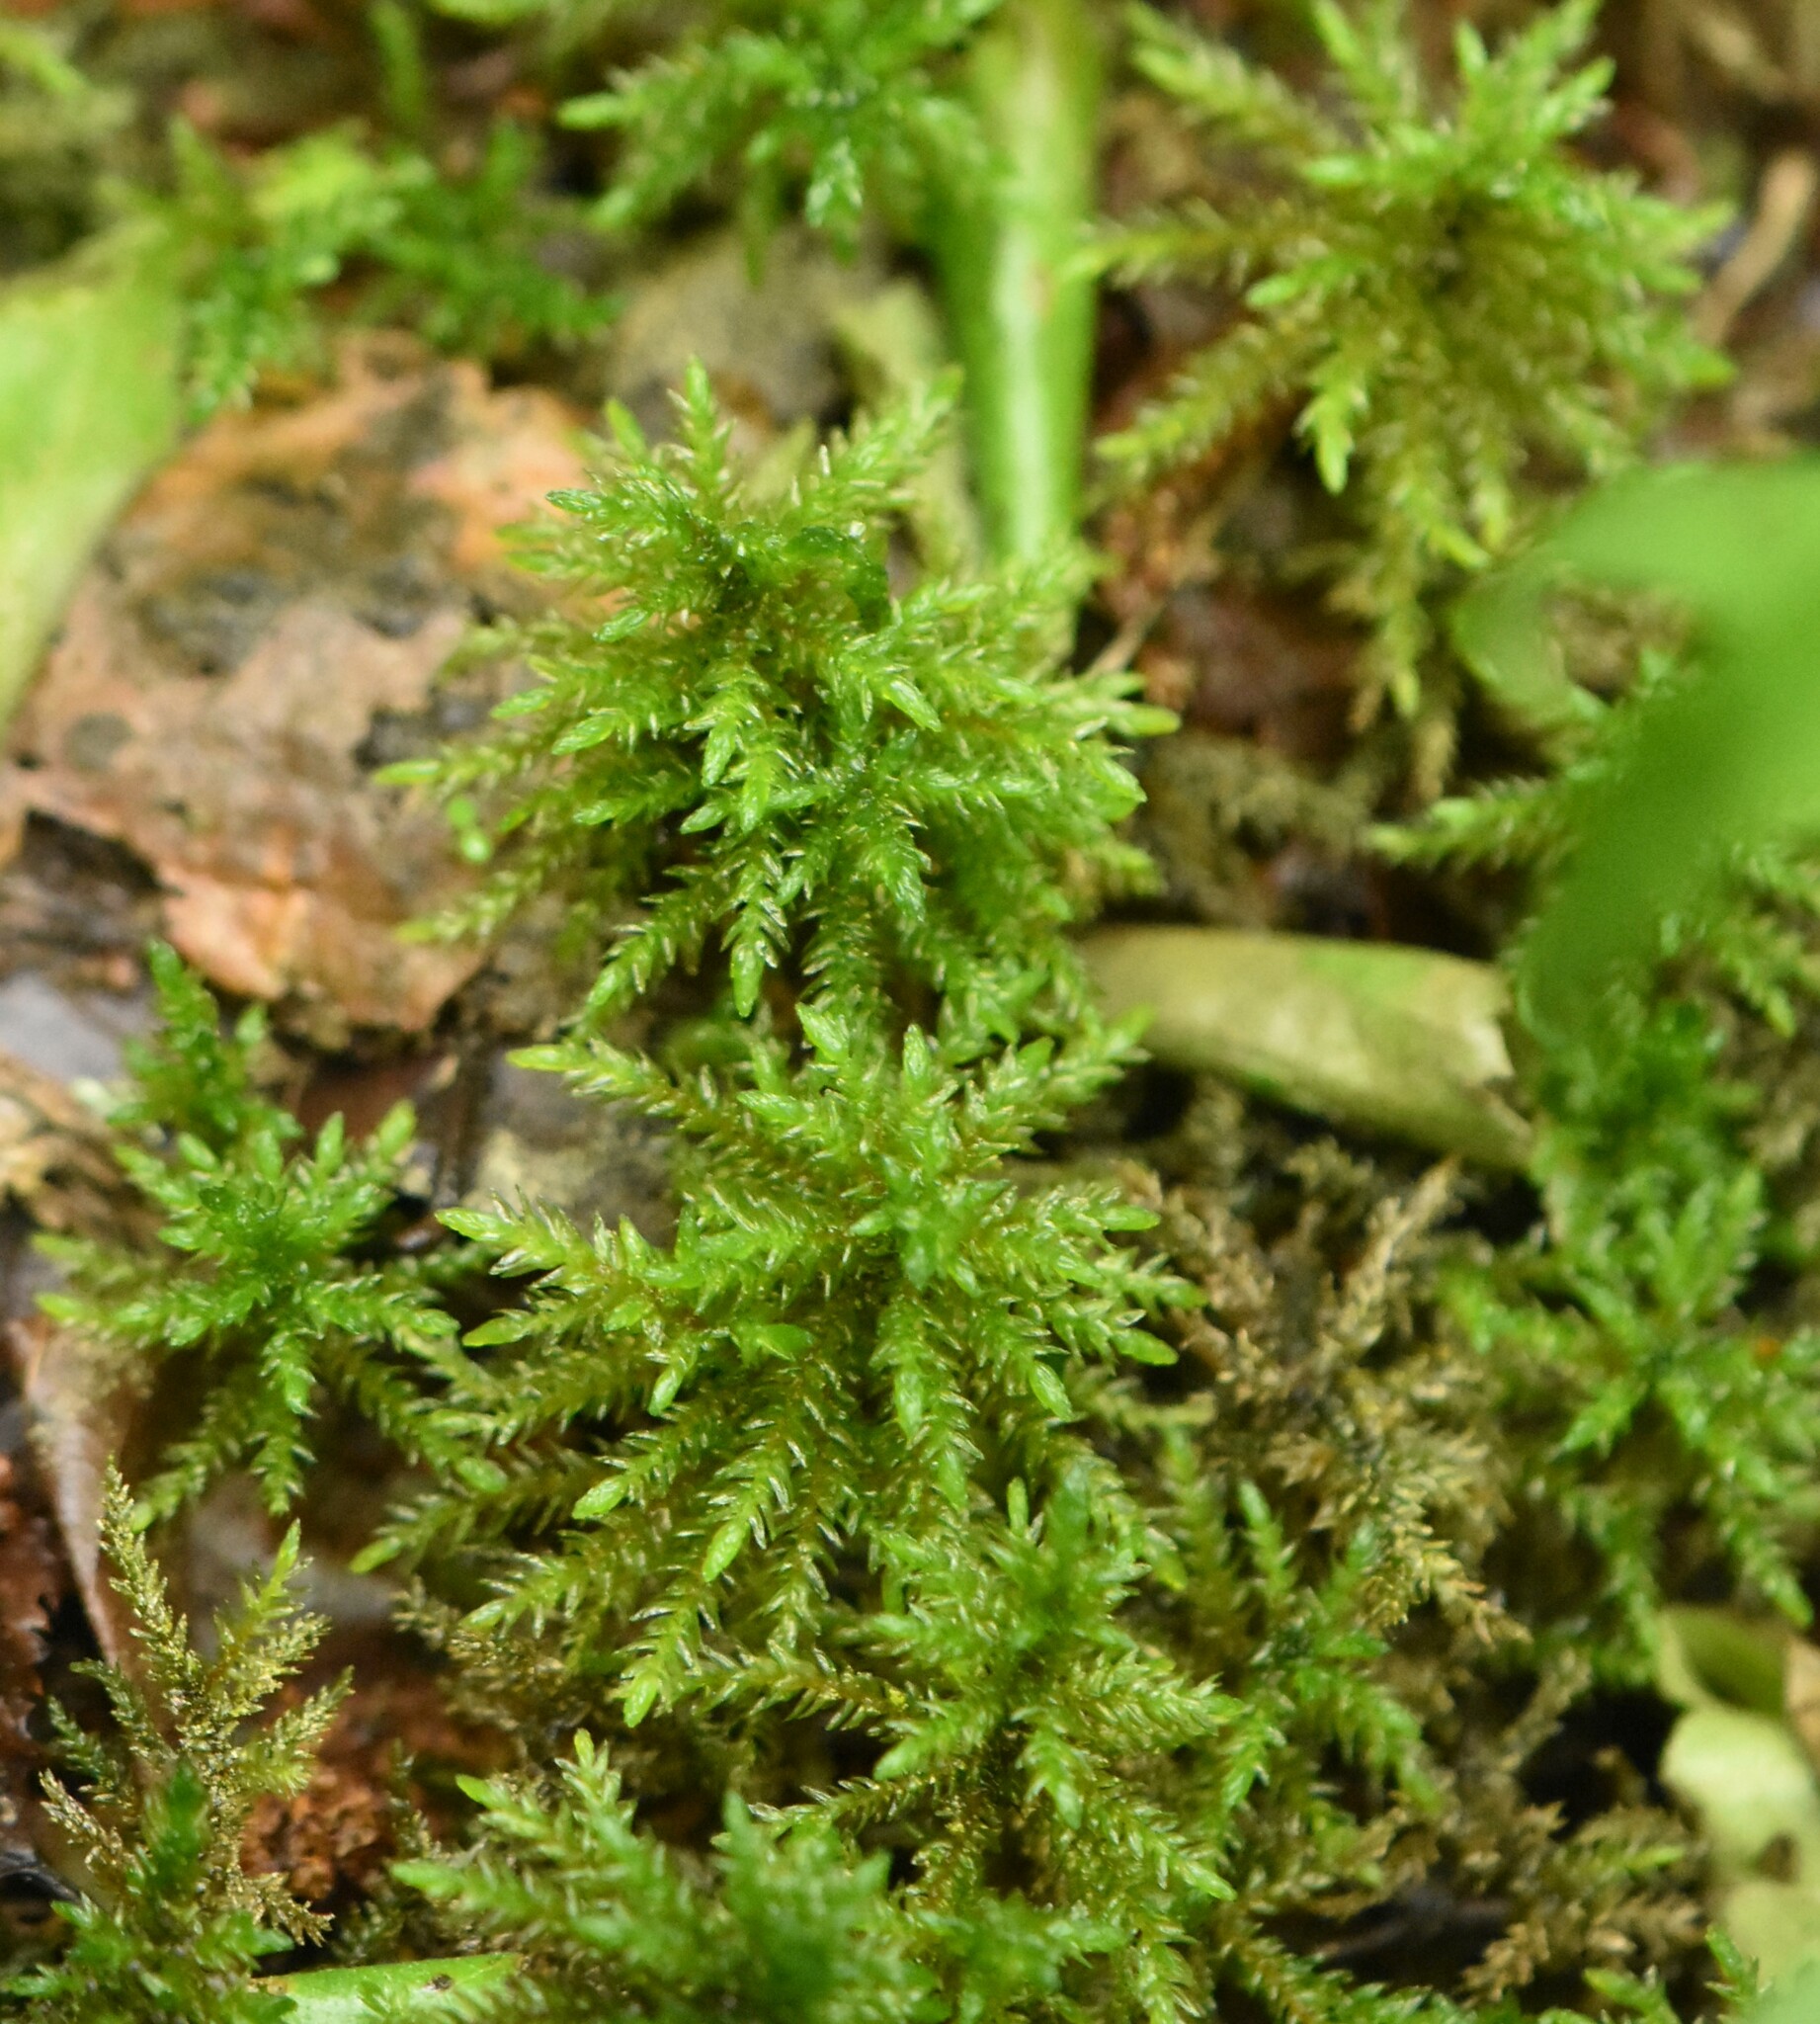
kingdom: Plantae
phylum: Bryophyta
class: Bryopsida
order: Hypnales
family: Climaciaceae
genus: Climacium
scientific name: Climacium dendroides
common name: Northern tree moss
